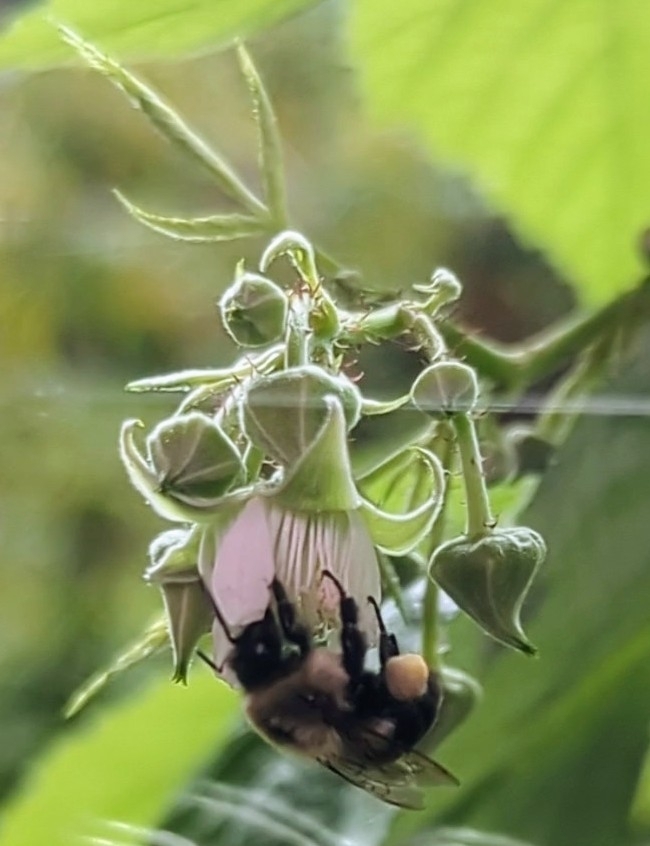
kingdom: Animalia
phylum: Arthropoda
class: Insecta
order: Hymenoptera
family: Apidae
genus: Bombus
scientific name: Bombus impatiens
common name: Common eastern bumble bee
